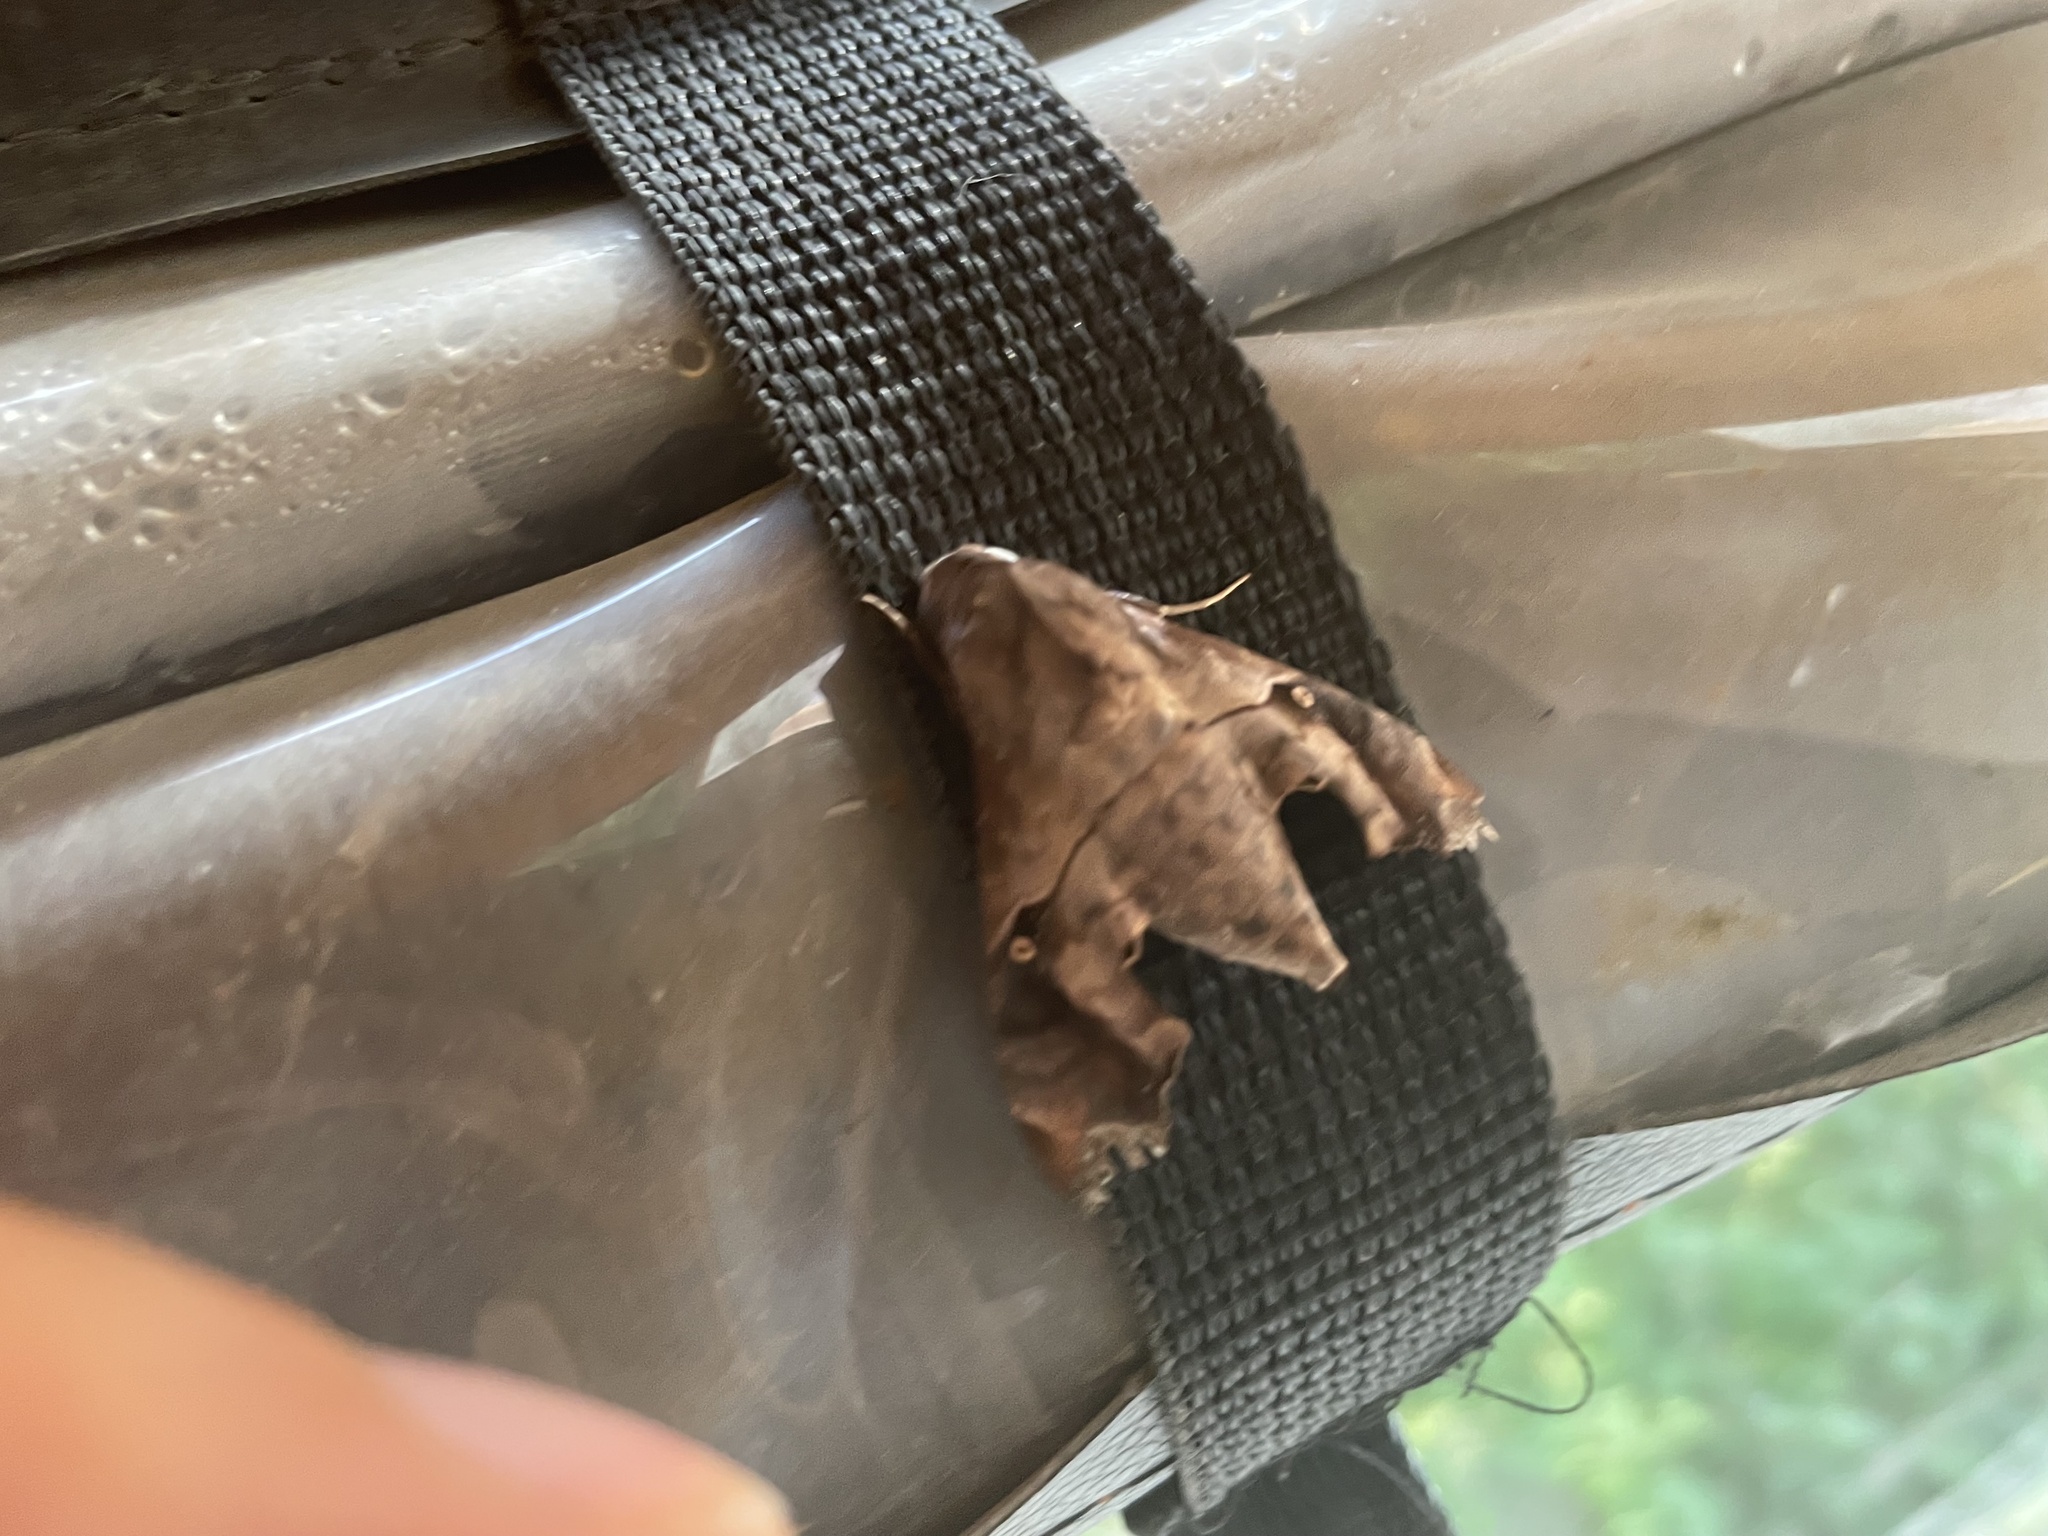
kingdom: Animalia
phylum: Arthropoda
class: Insecta
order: Lepidoptera
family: Sphingidae
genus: Enyo
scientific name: Enyo lugubris
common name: Mournful sphinx
